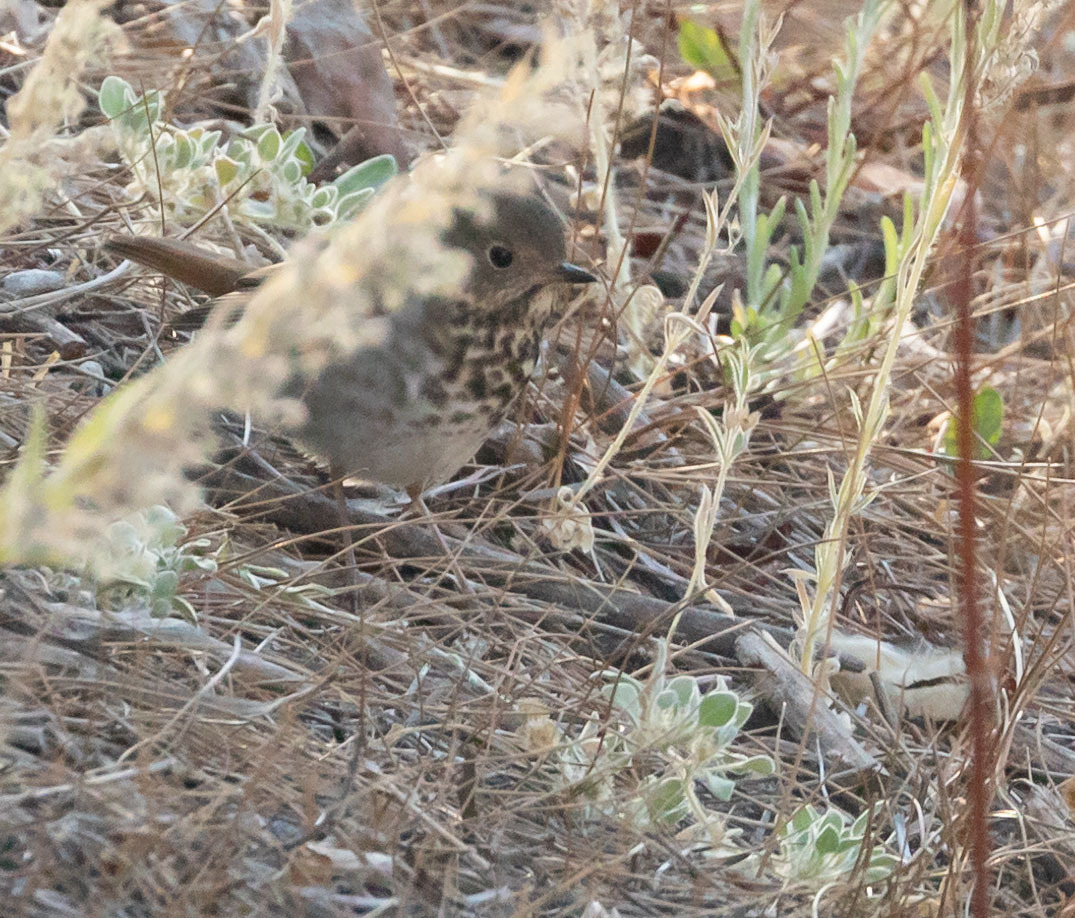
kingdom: Animalia
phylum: Chordata
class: Aves
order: Passeriformes
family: Turdidae
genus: Catharus
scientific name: Catharus guttatus
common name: Hermit thrush
